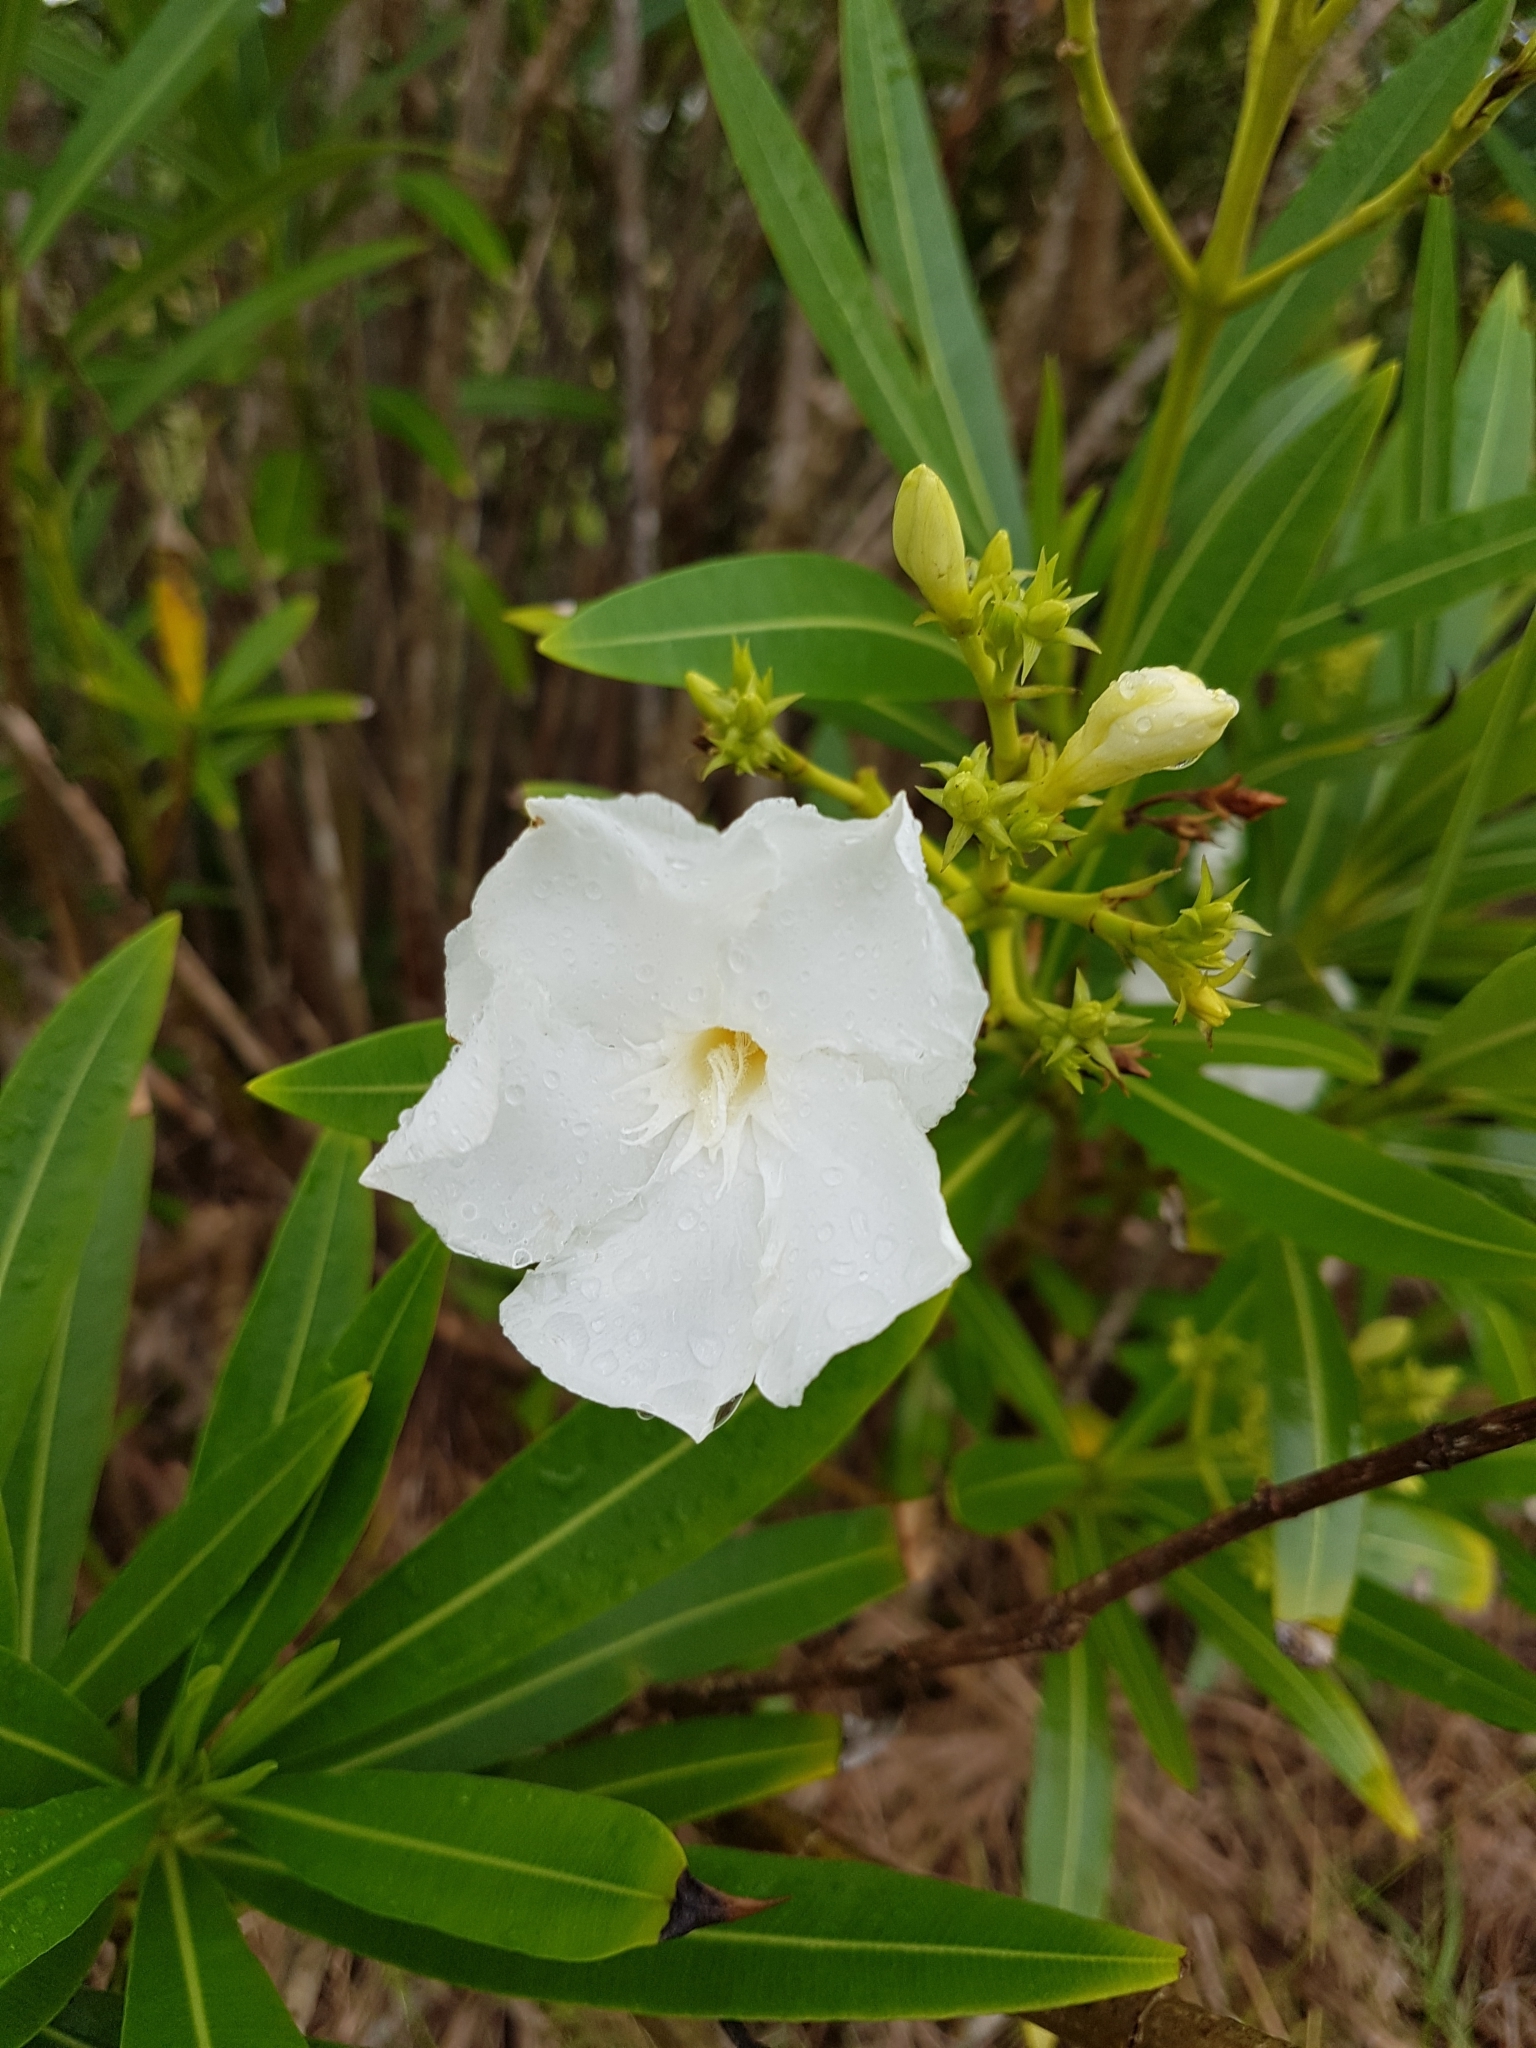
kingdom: Plantae
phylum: Tracheophyta
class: Magnoliopsida
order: Gentianales
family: Apocynaceae
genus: Nerium
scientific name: Nerium oleander
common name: Oleander
